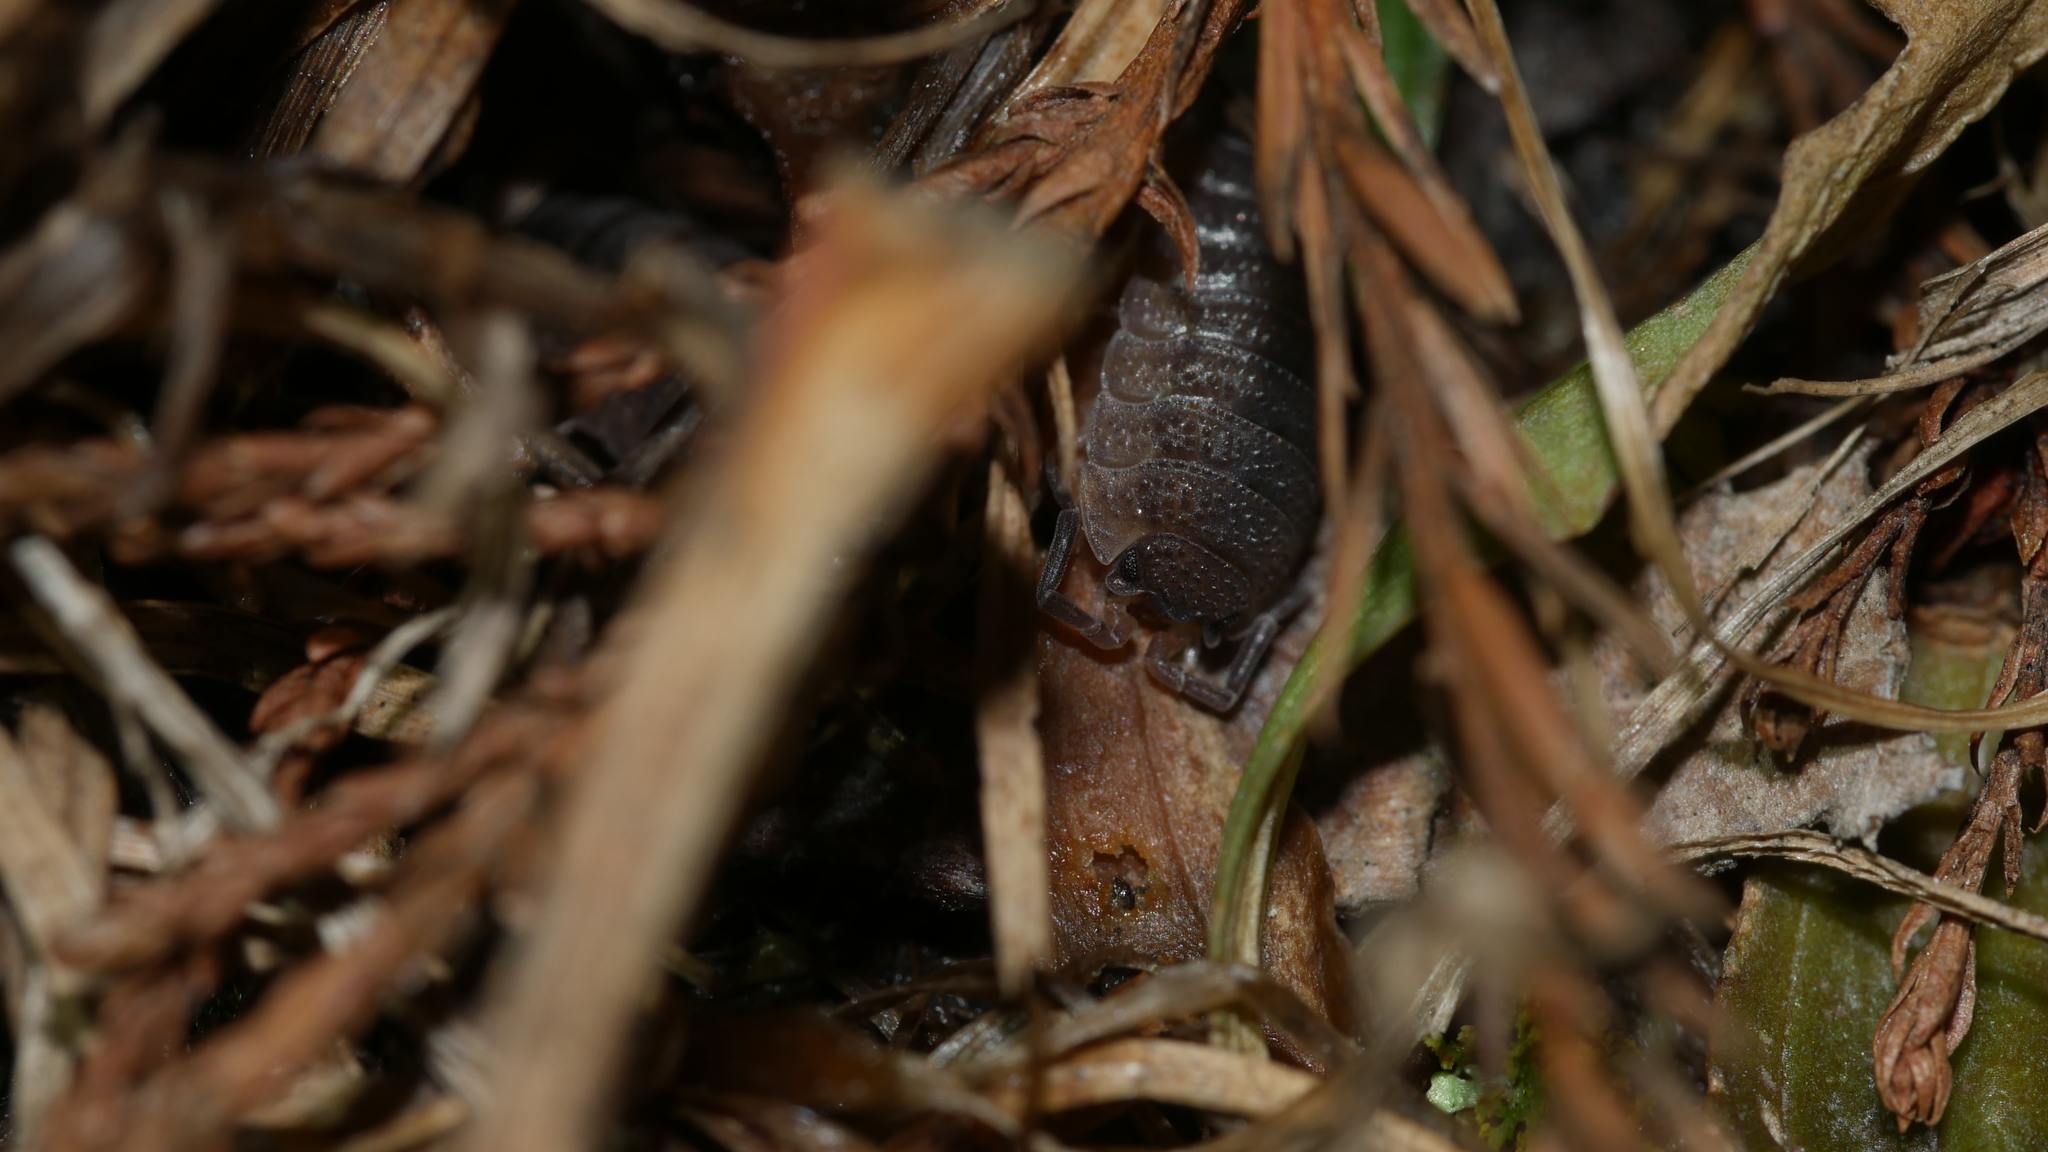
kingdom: Animalia
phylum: Arthropoda
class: Malacostraca
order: Isopoda
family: Porcellionidae
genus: Porcellio
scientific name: Porcellio scaber
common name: Common rough woodlouse
